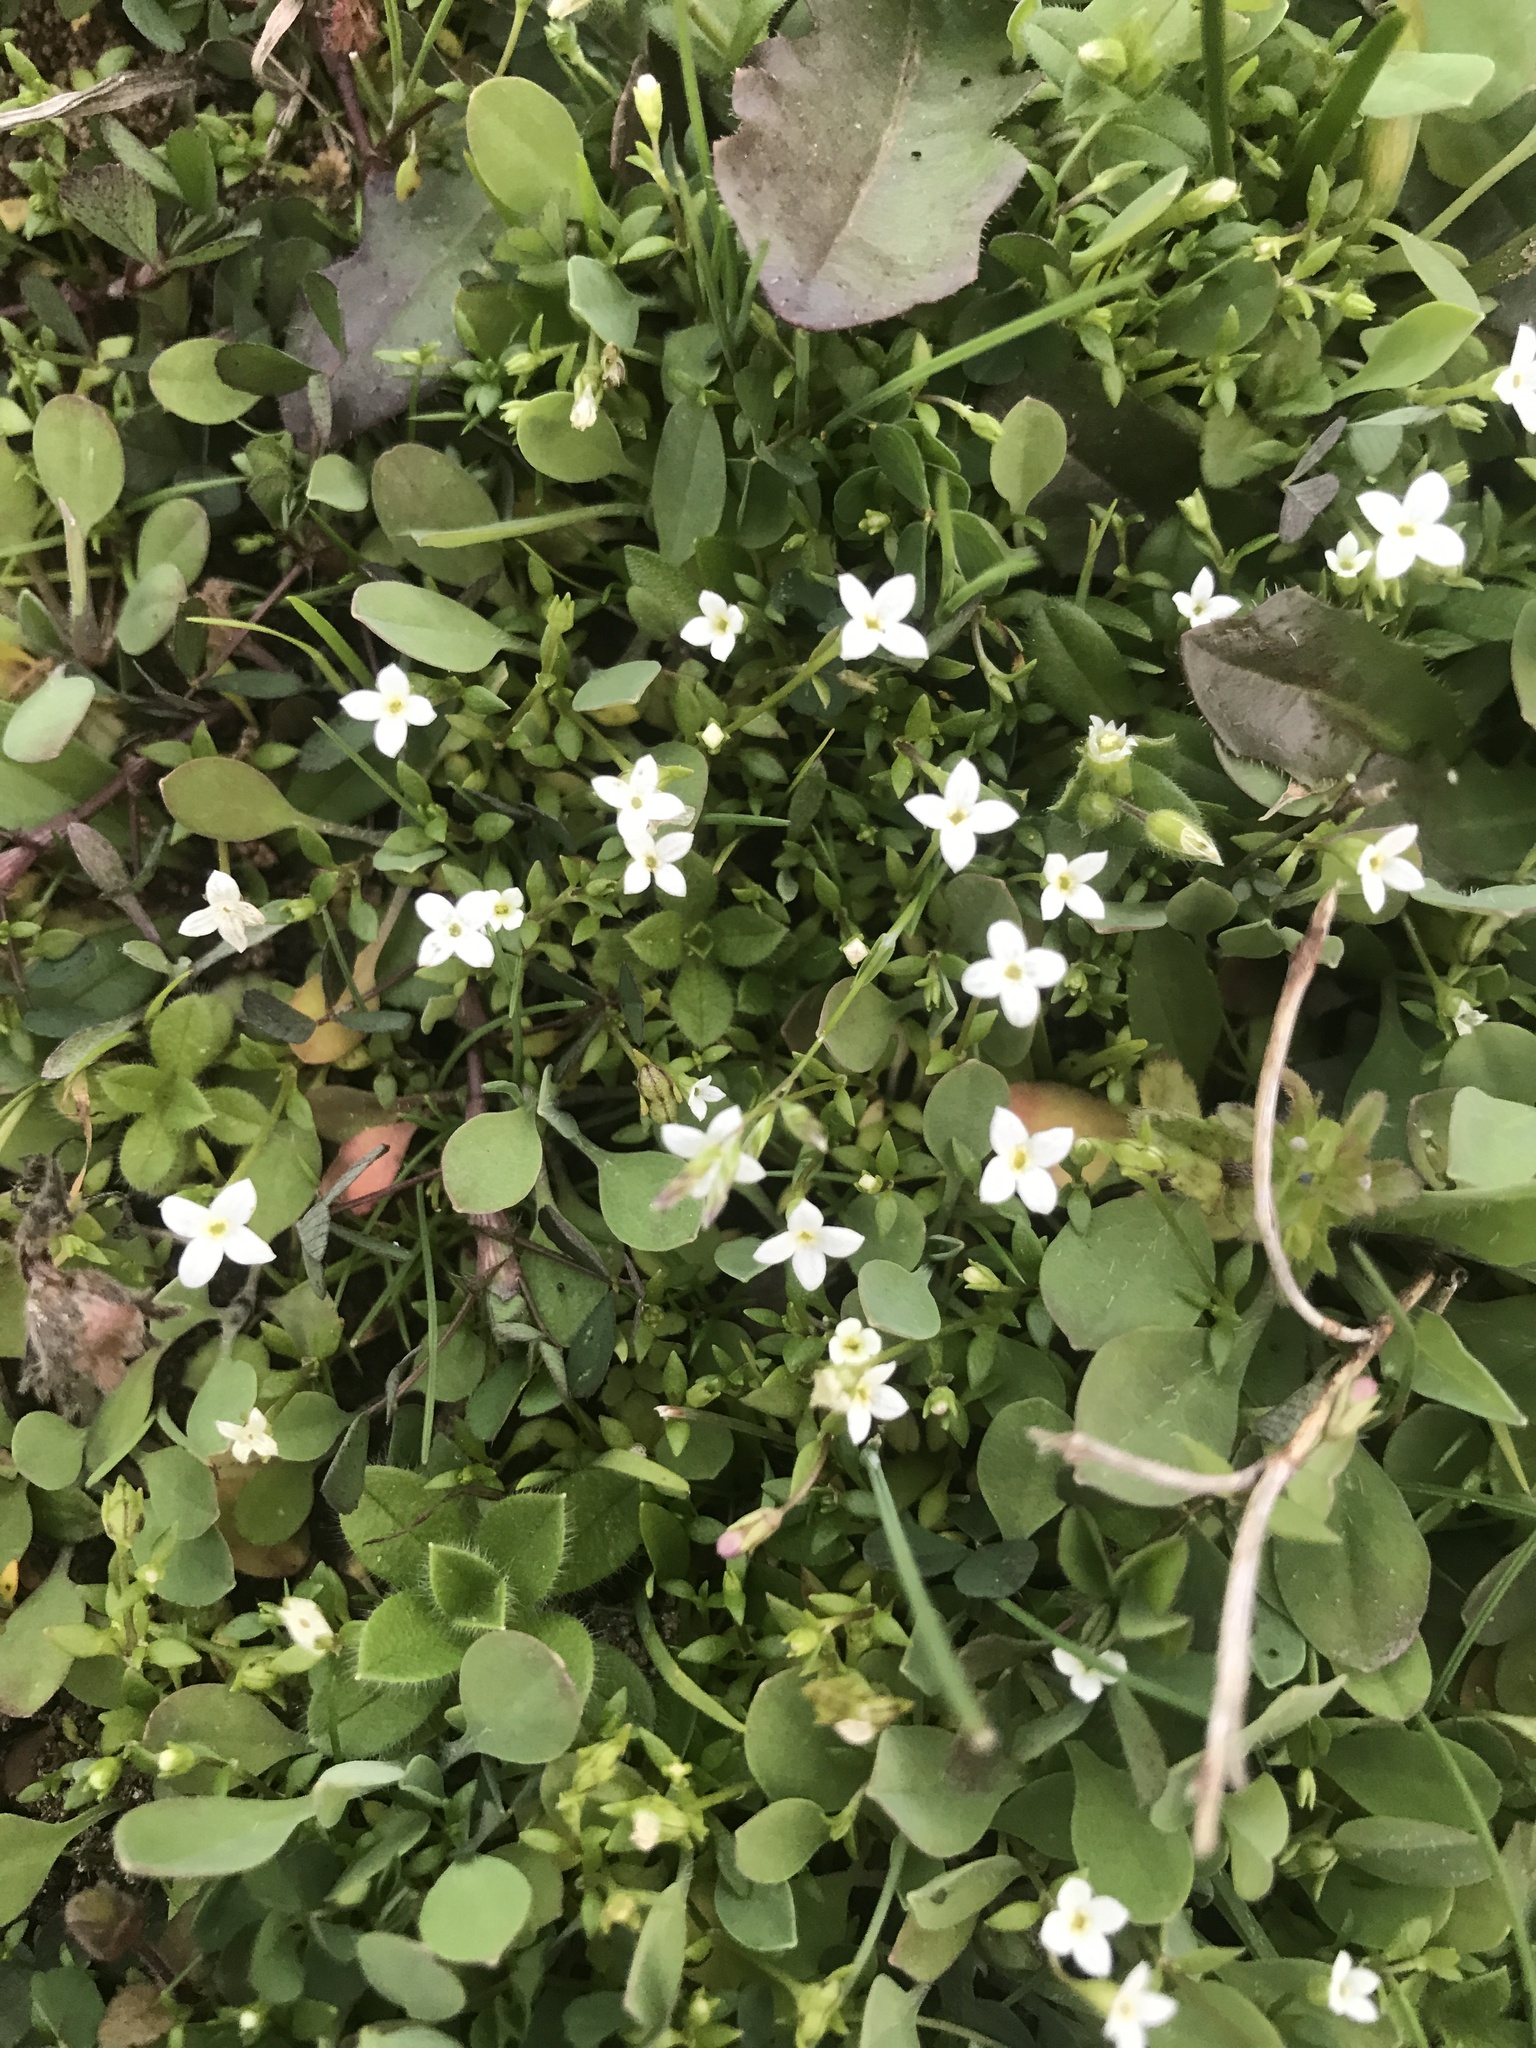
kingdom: Plantae
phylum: Tracheophyta
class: Magnoliopsida
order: Gentianales
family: Rubiaceae
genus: Houstonia
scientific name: Houstonia micrantha
